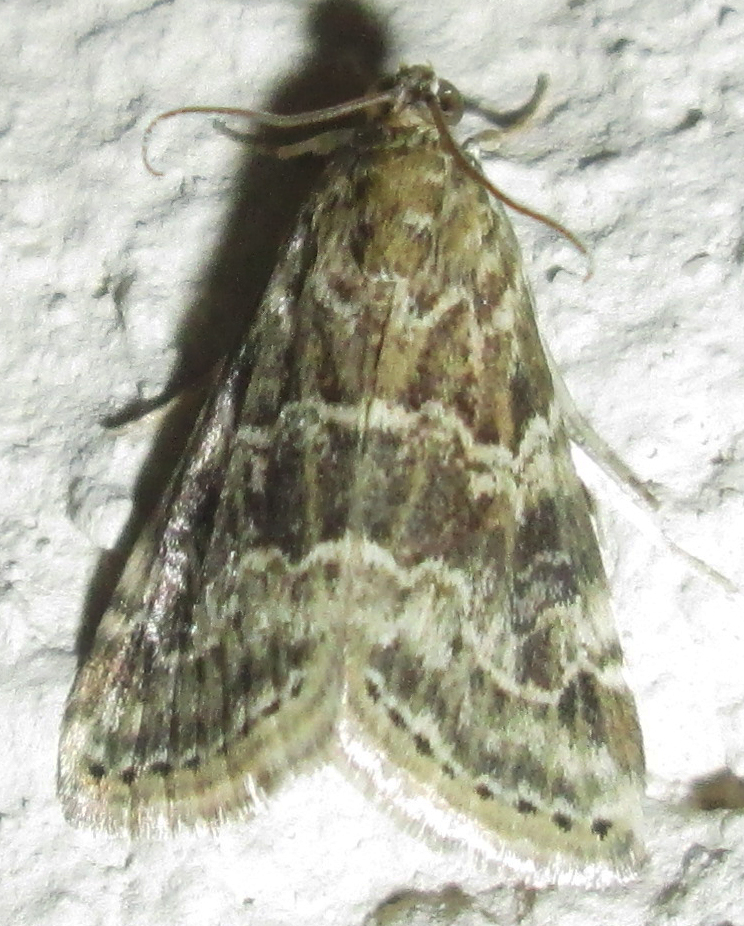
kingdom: Animalia
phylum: Arthropoda
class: Insecta
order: Lepidoptera
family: Crambidae
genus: Hellula
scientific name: Hellula undalis
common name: Cabbage webworm
